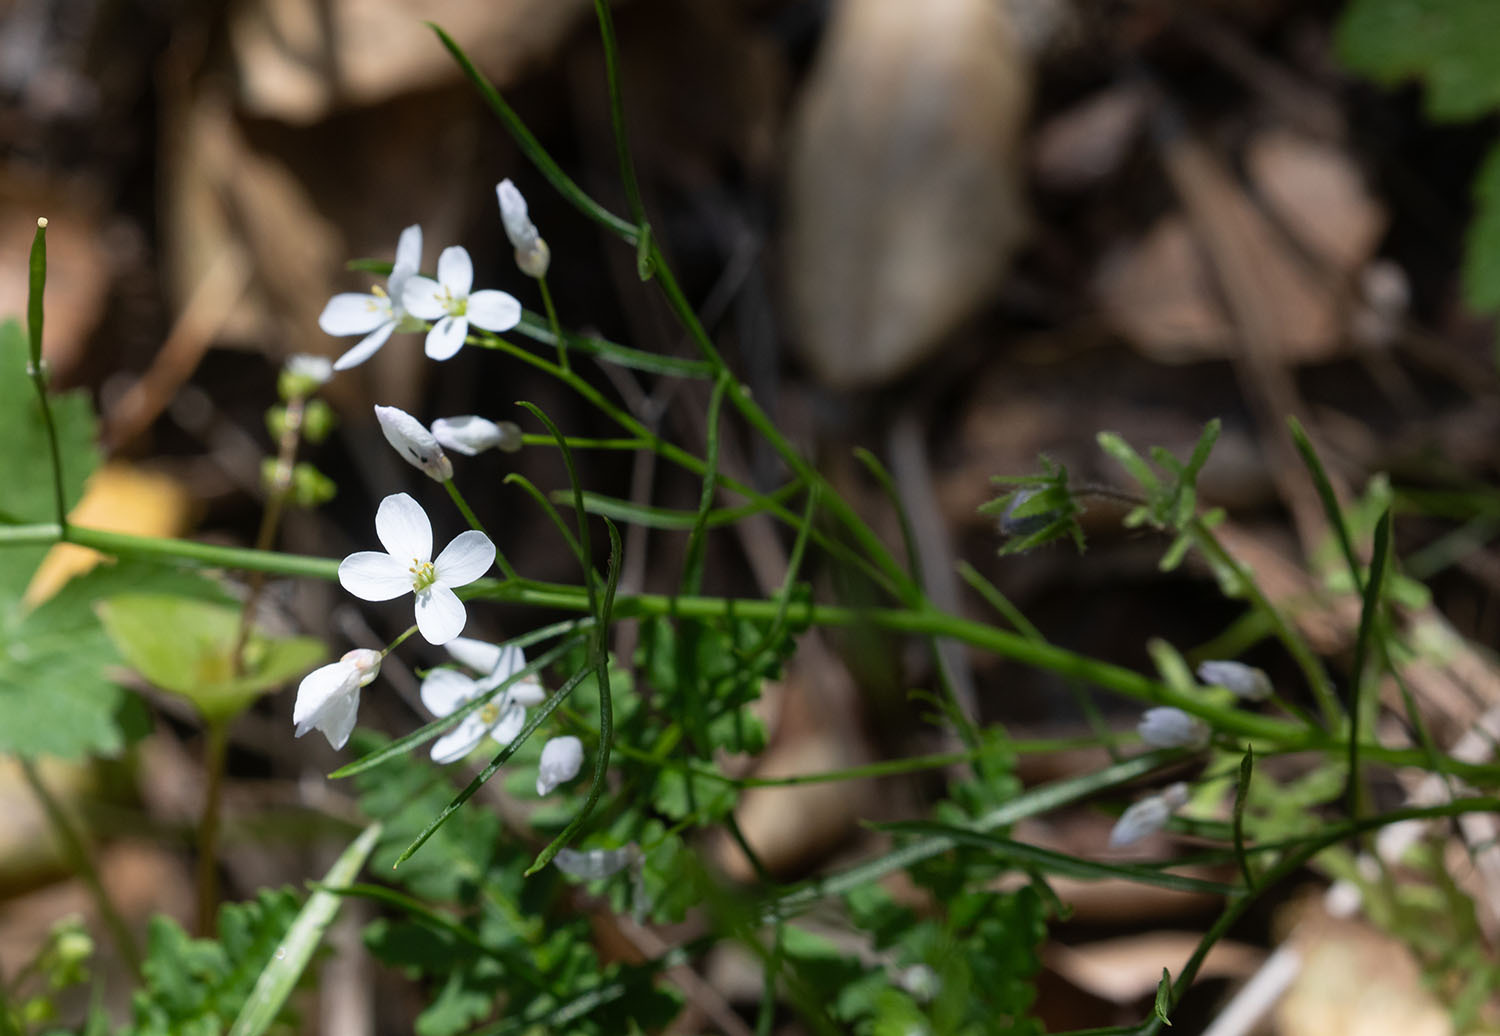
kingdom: Plantae
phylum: Tracheophyta
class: Magnoliopsida
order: Brassicales
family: Brassicaceae
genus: Cardamine
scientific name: Cardamine californica
